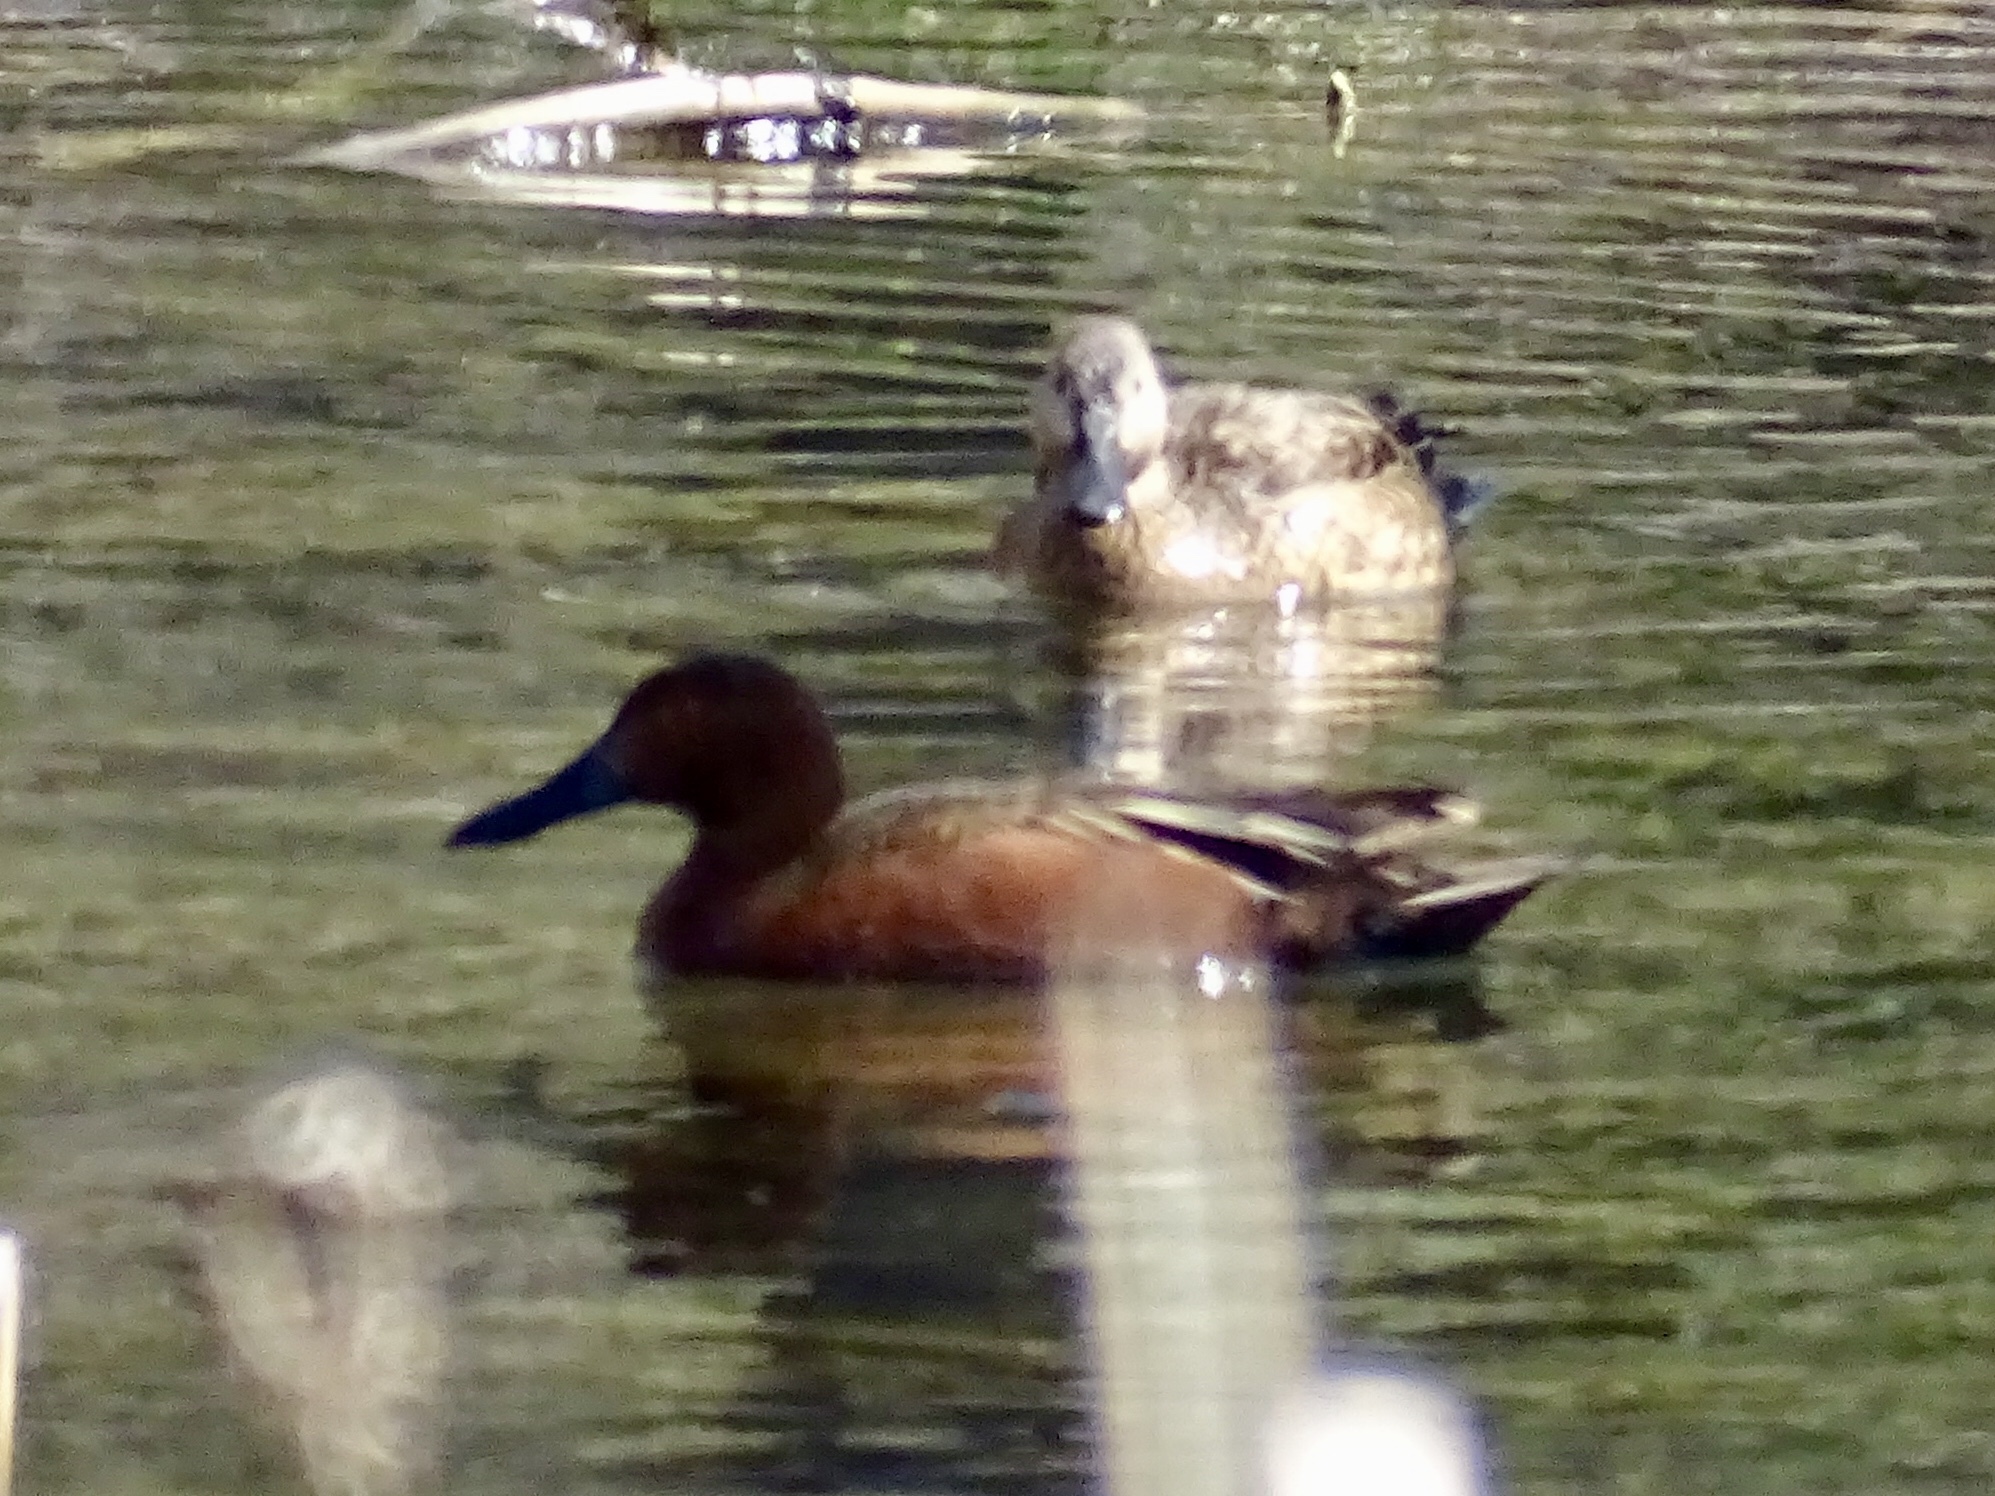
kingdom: Animalia
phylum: Chordata
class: Aves
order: Anseriformes
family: Anatidae
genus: Spatula
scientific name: Spatula cyanoptera
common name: Cinnamon teal
